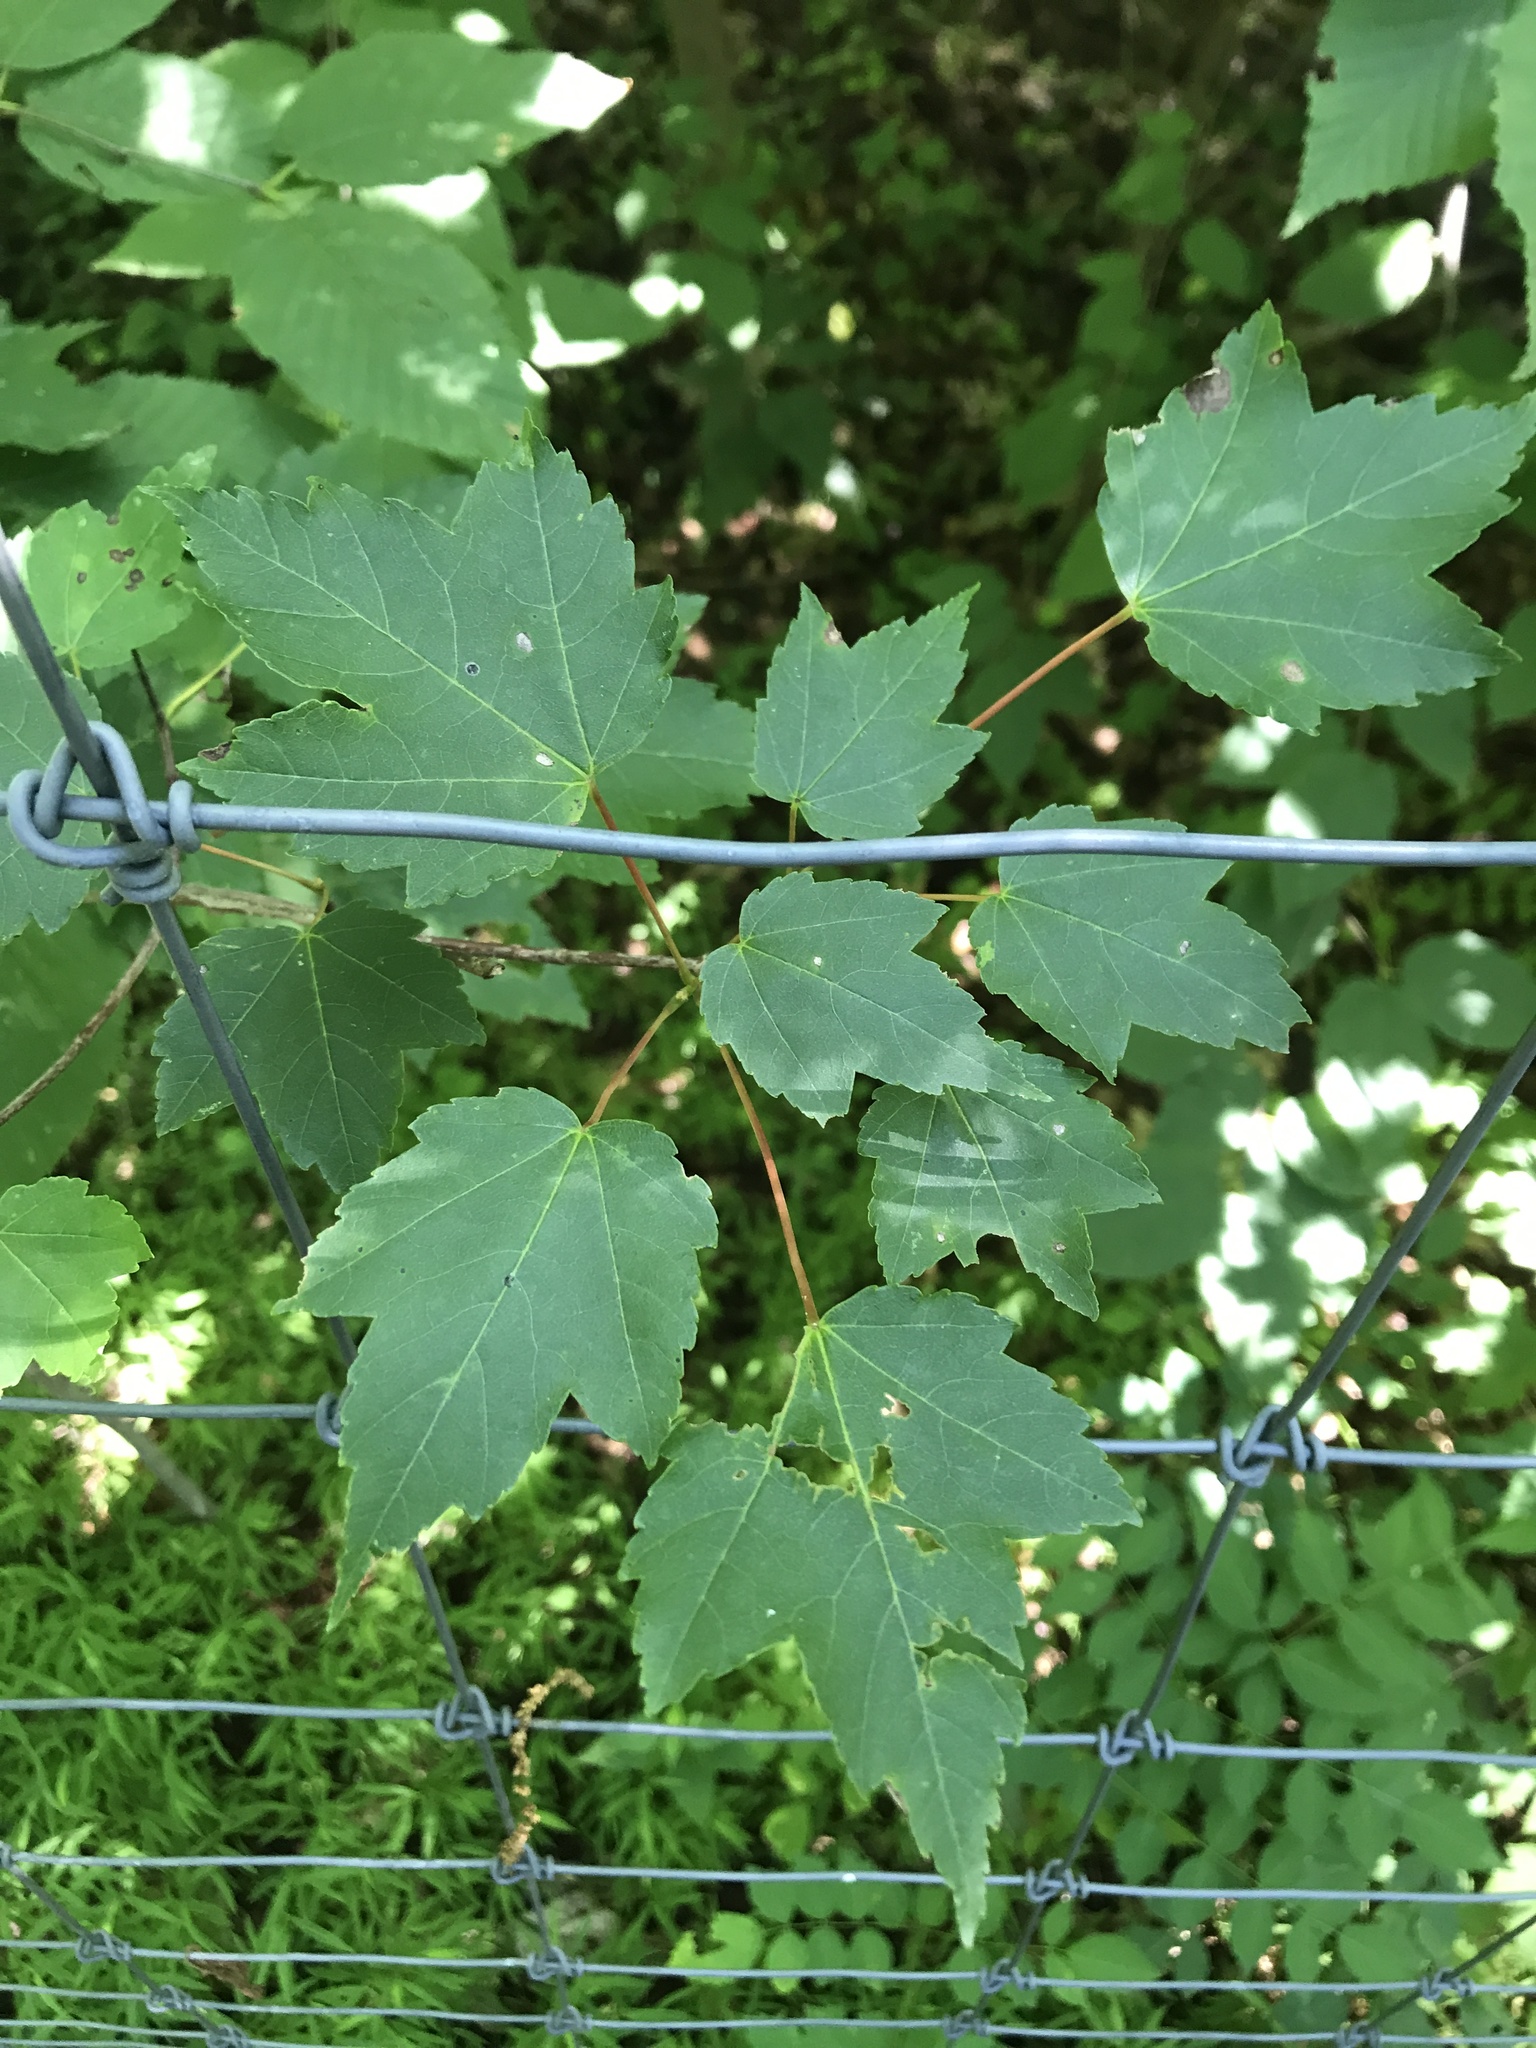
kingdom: Plantae
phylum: Tracheophyta
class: Magnoliopsida
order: Sapindales
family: Sapindaceae
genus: Acer
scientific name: Acer rubrum
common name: Red maple
